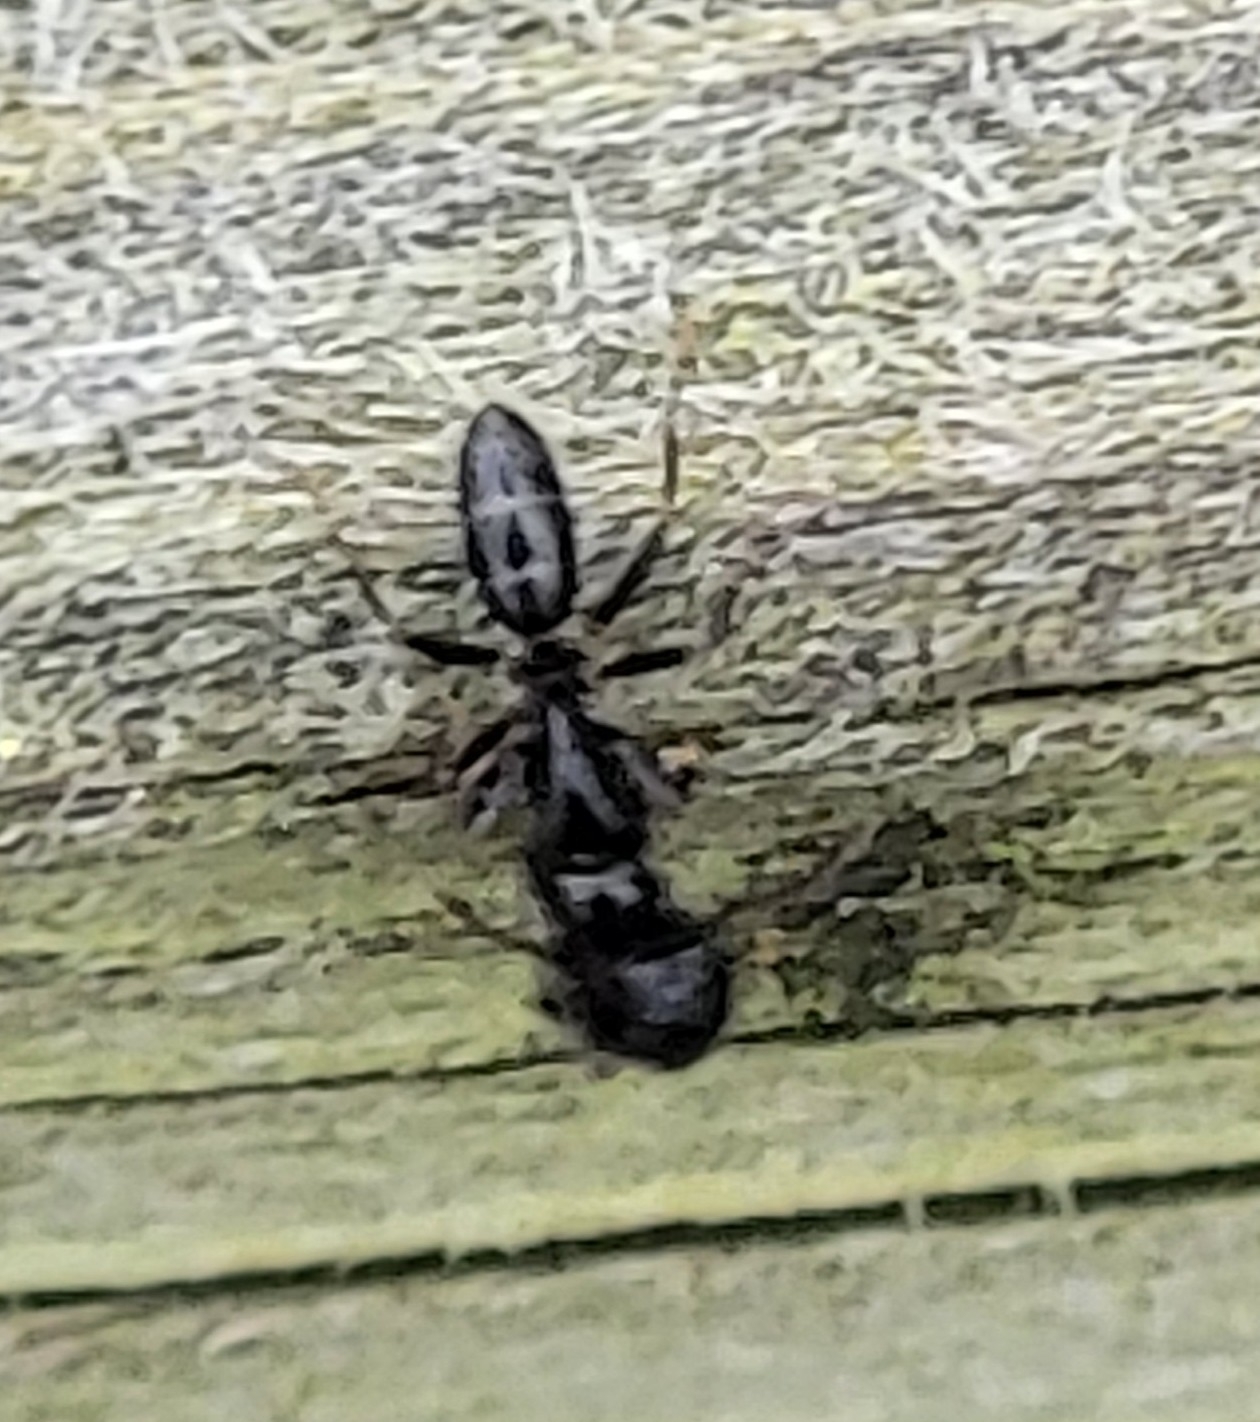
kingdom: Animalia
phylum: Arthropoda
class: Insecta
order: Hymenoptera
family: Formicidae
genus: Myrmentoma
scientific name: Myrmentoma
